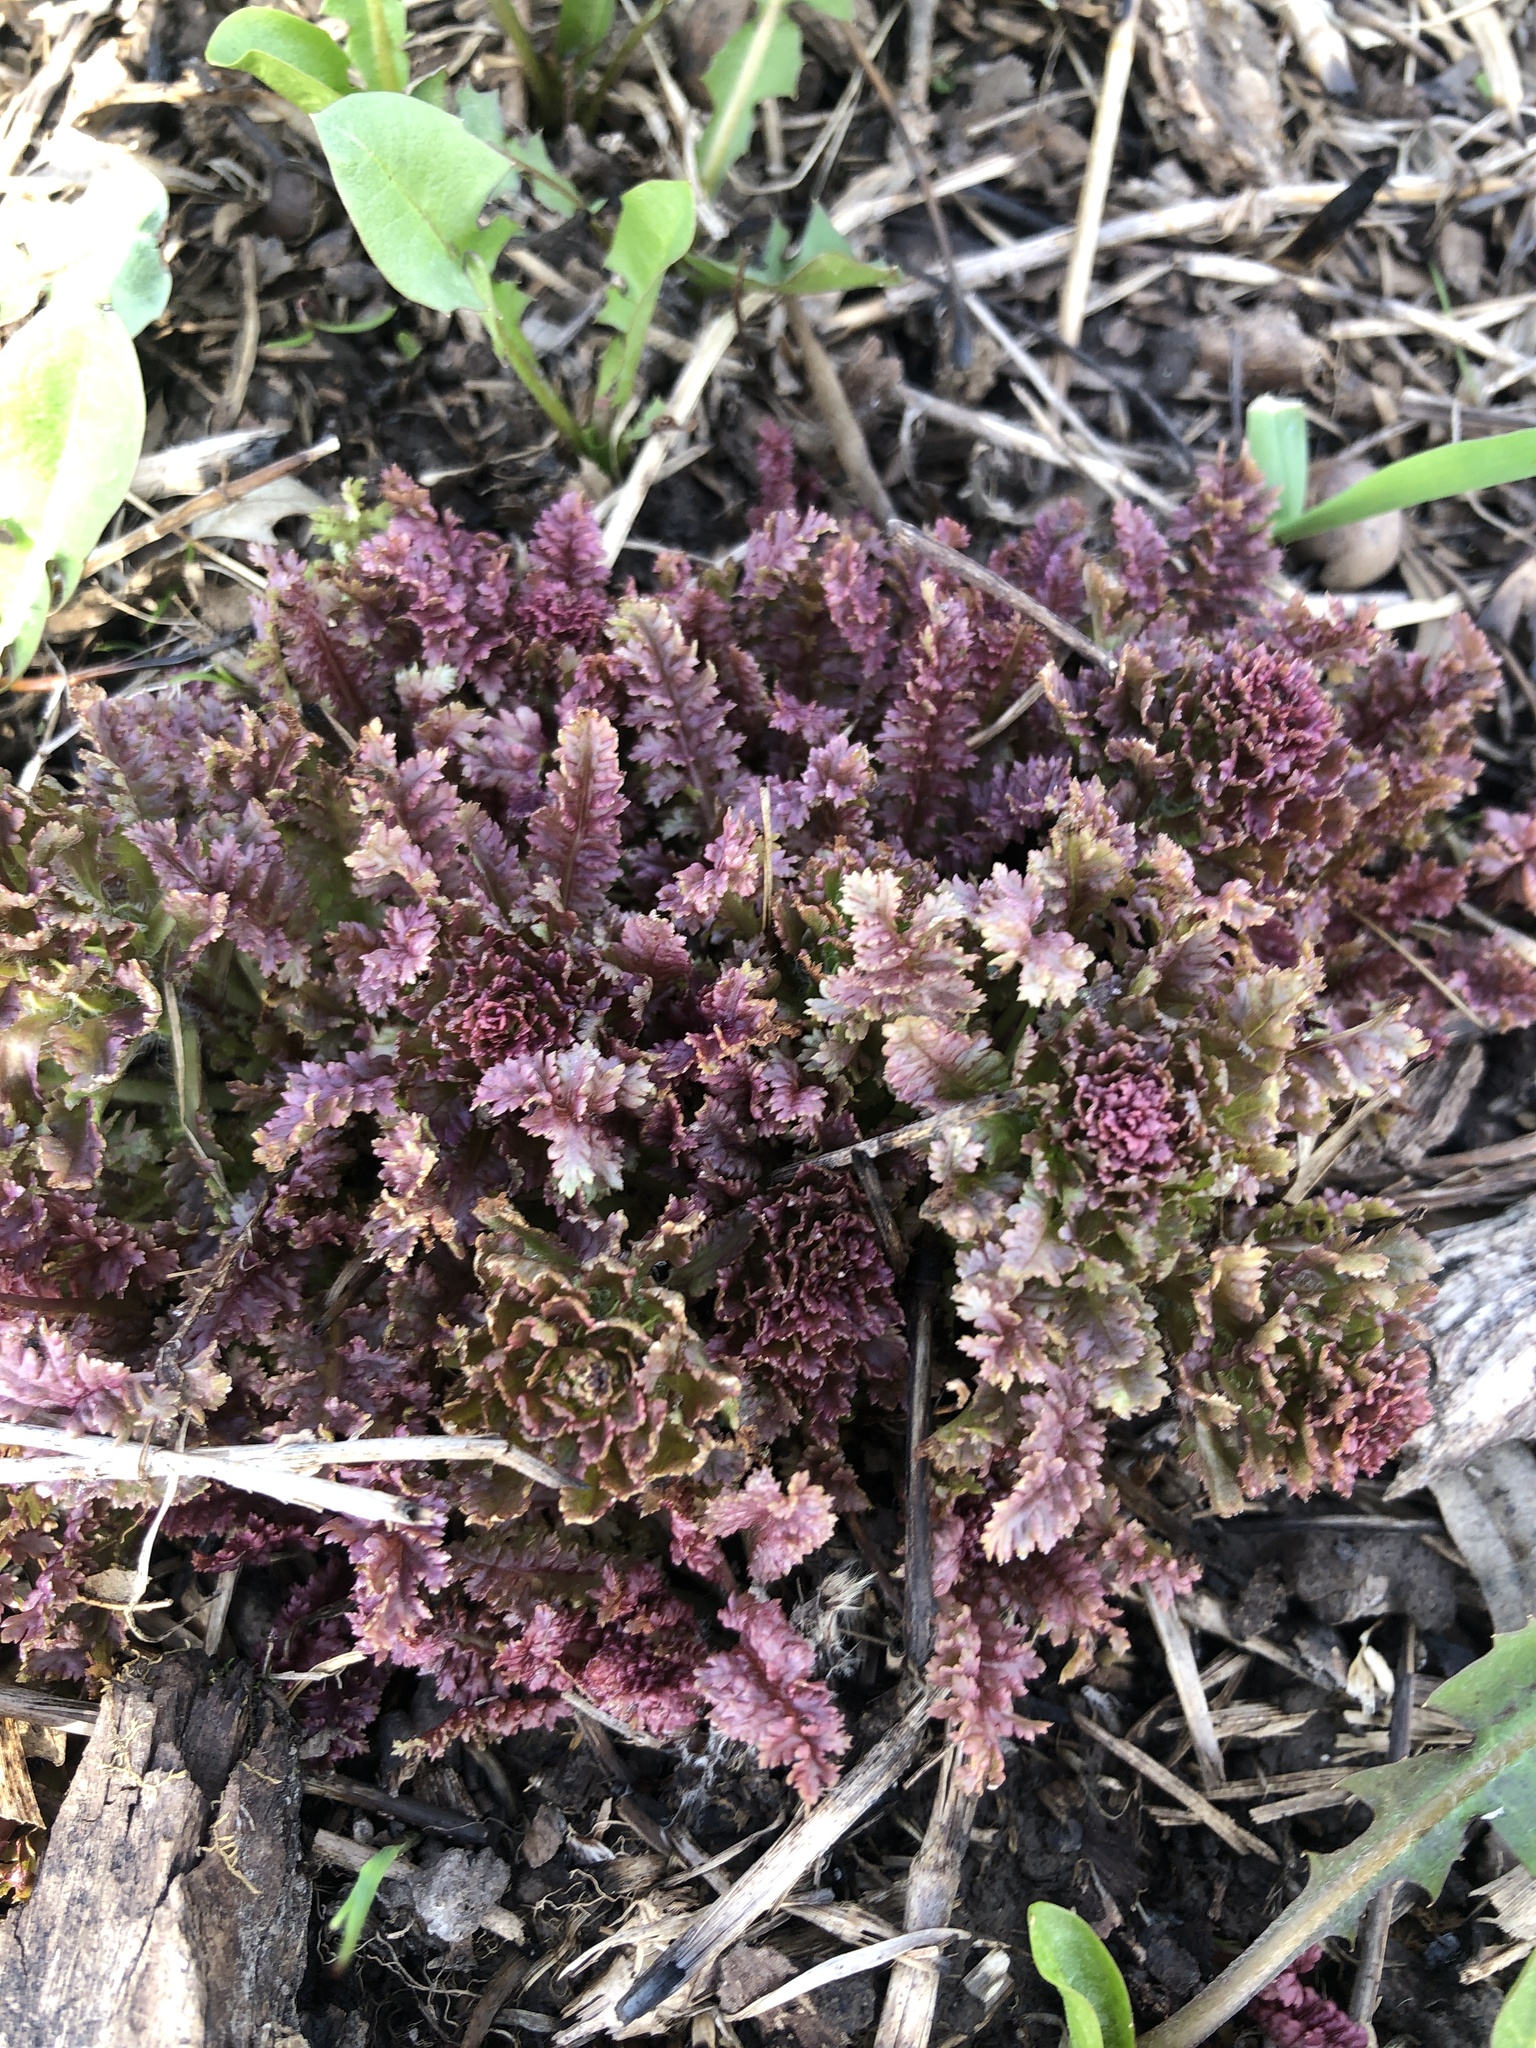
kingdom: Plantae
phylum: Tracheophyta
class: Magnoliopsida
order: Lamiales
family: Orobanchaceae
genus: Pedicularis
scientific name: Pedicularis canadensis
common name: Early lousewort
